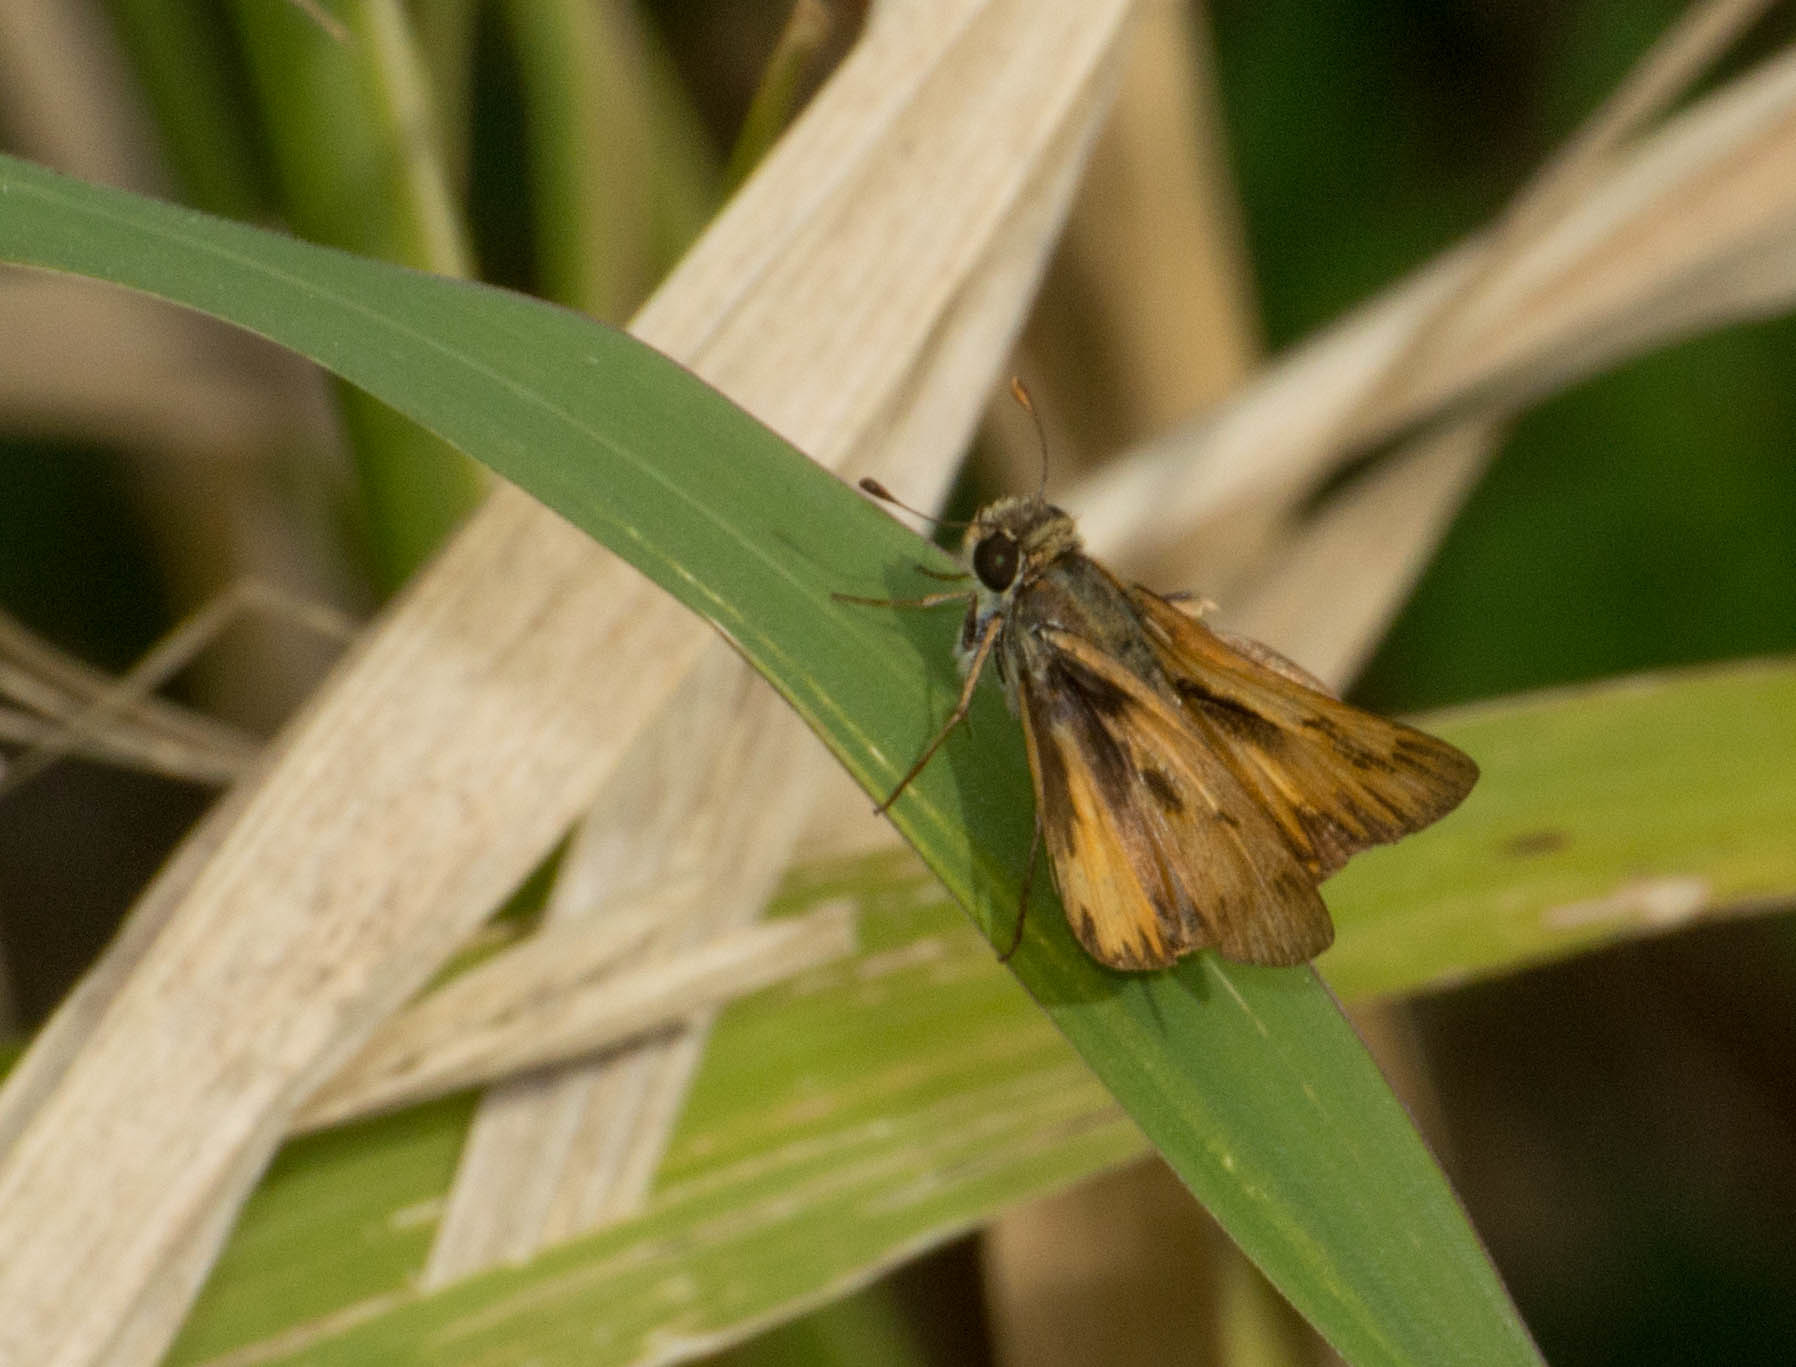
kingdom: Animalia
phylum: Arthropoda
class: Insecta
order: Lepidoptera
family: Hesperiidae
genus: Hylephila
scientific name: Hylephila phyleus
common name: Fiery skipper
